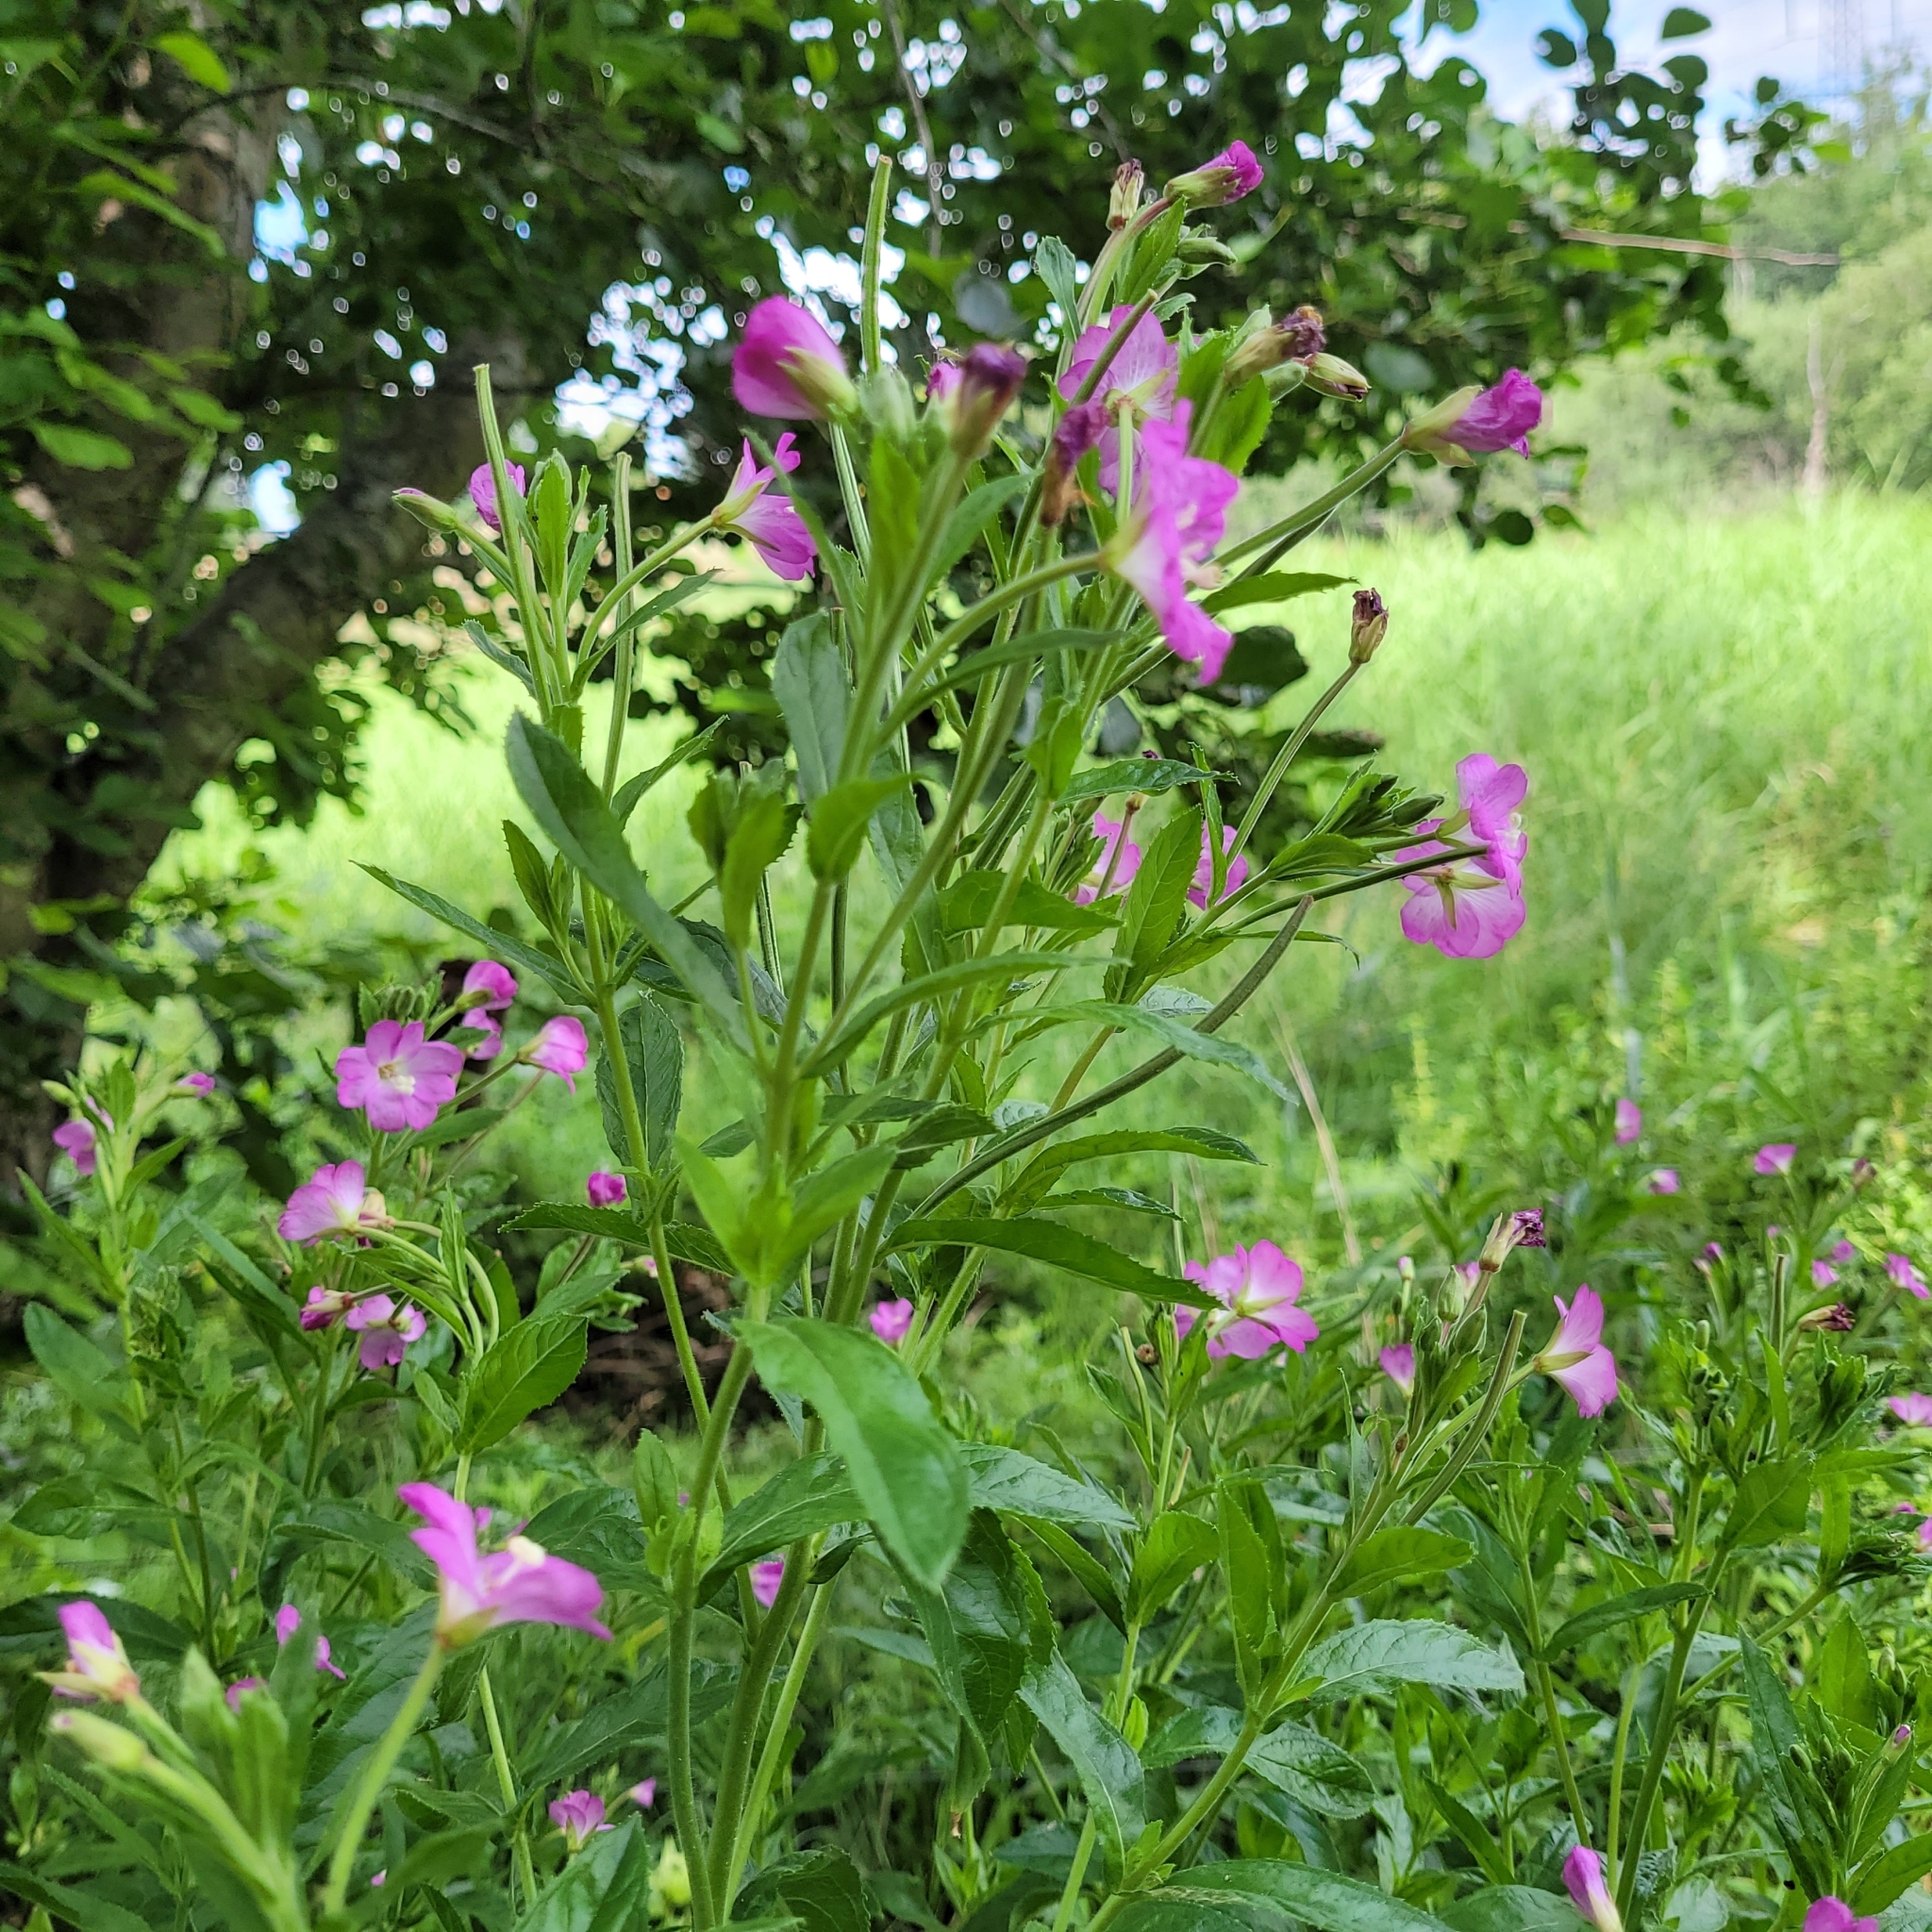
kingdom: Plantae
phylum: Tracheophyta
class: Magnoliopsida
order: Myrtales
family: Onagraceae
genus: Epilobium
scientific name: Epilobium hirsutum
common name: Great willowherb
